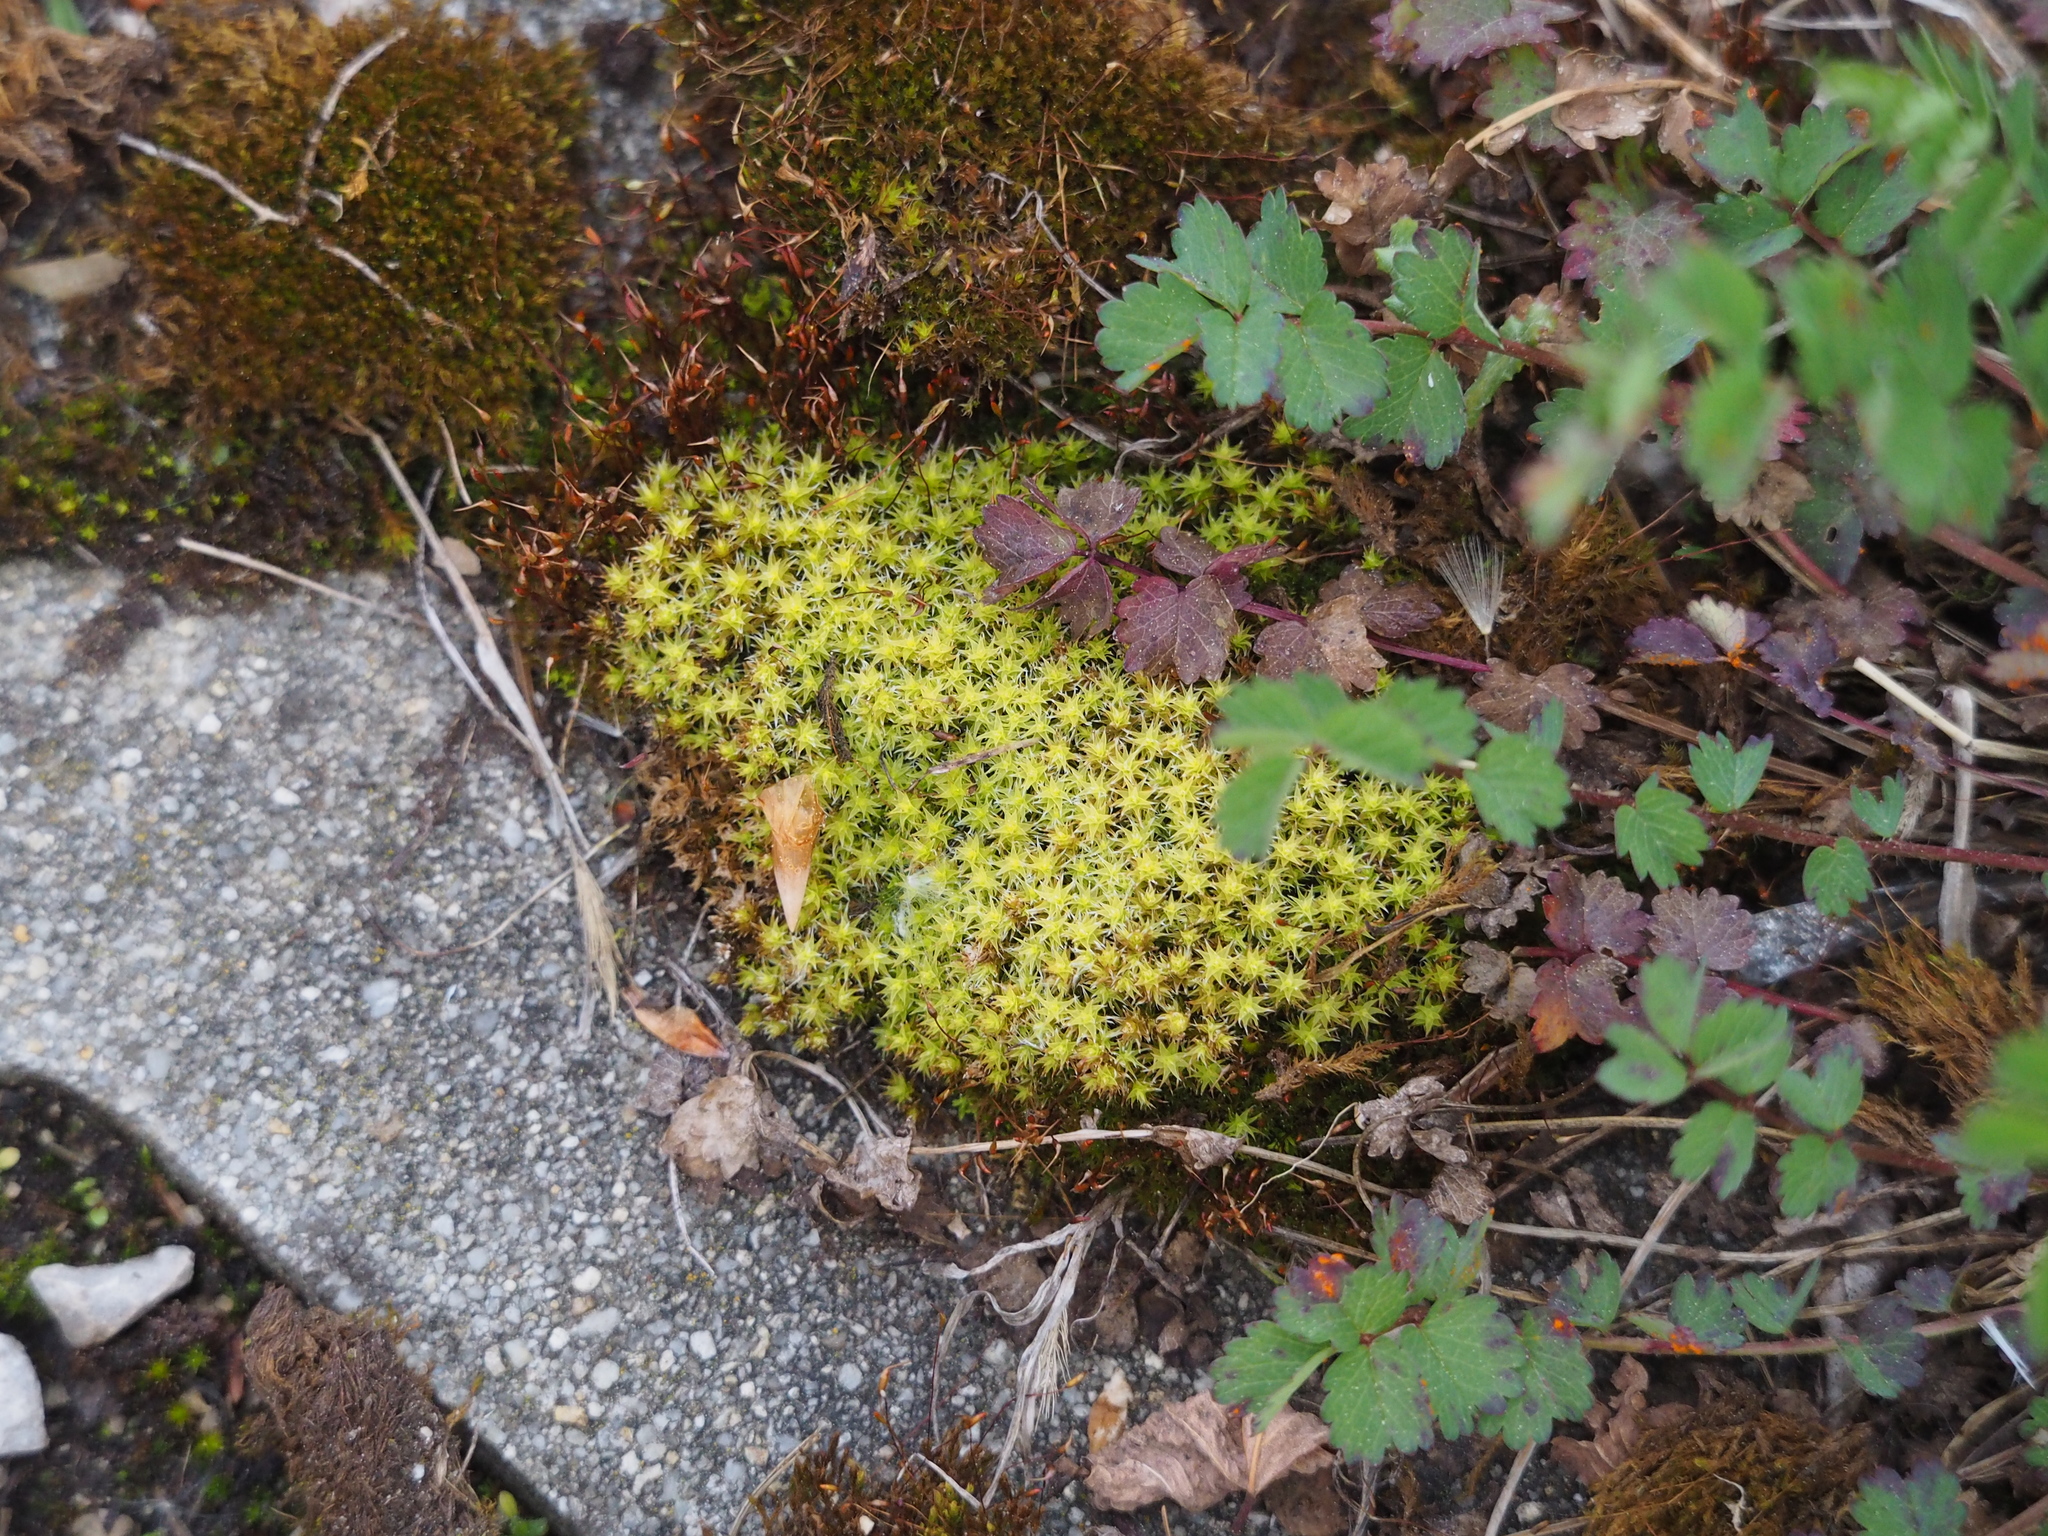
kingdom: Plantae
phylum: Bryophyta
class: Bryopsida
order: Grimmiales
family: Grimmiaceae
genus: Niphotrichum
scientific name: Niphotrichum canescens
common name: Hoary fringe-moss
